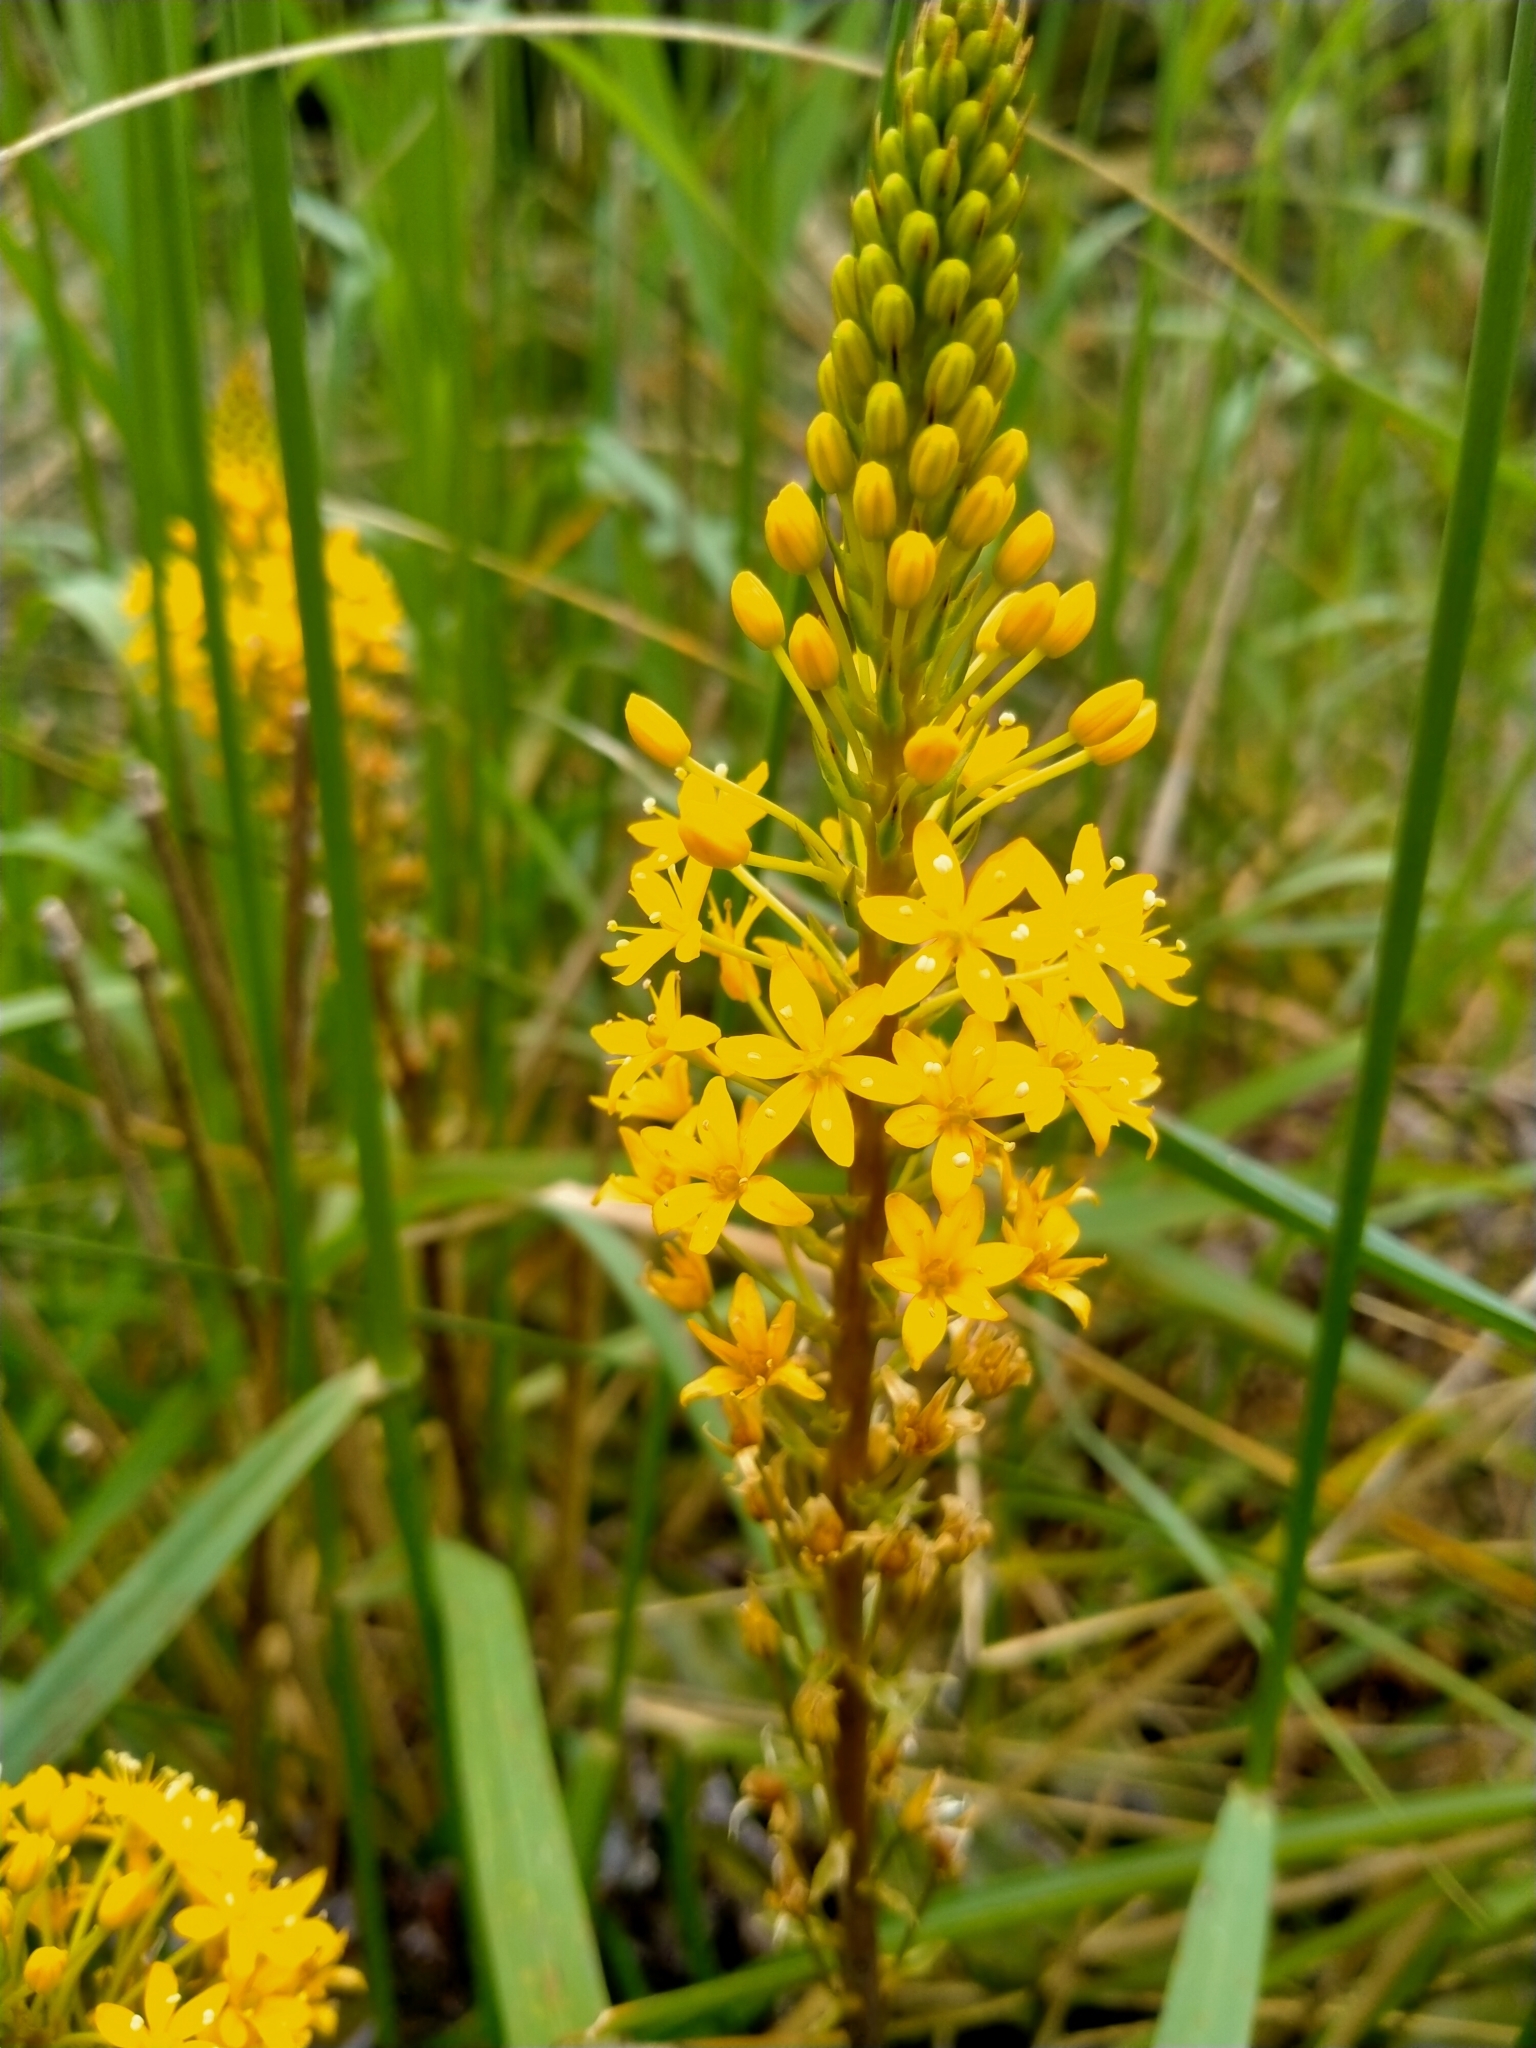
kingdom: Plantae
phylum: Tracheophyta
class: Liliopsida
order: Asparagales
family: Asphodelaceae
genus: Bulbinella
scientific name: Bulbinella angustifolia
